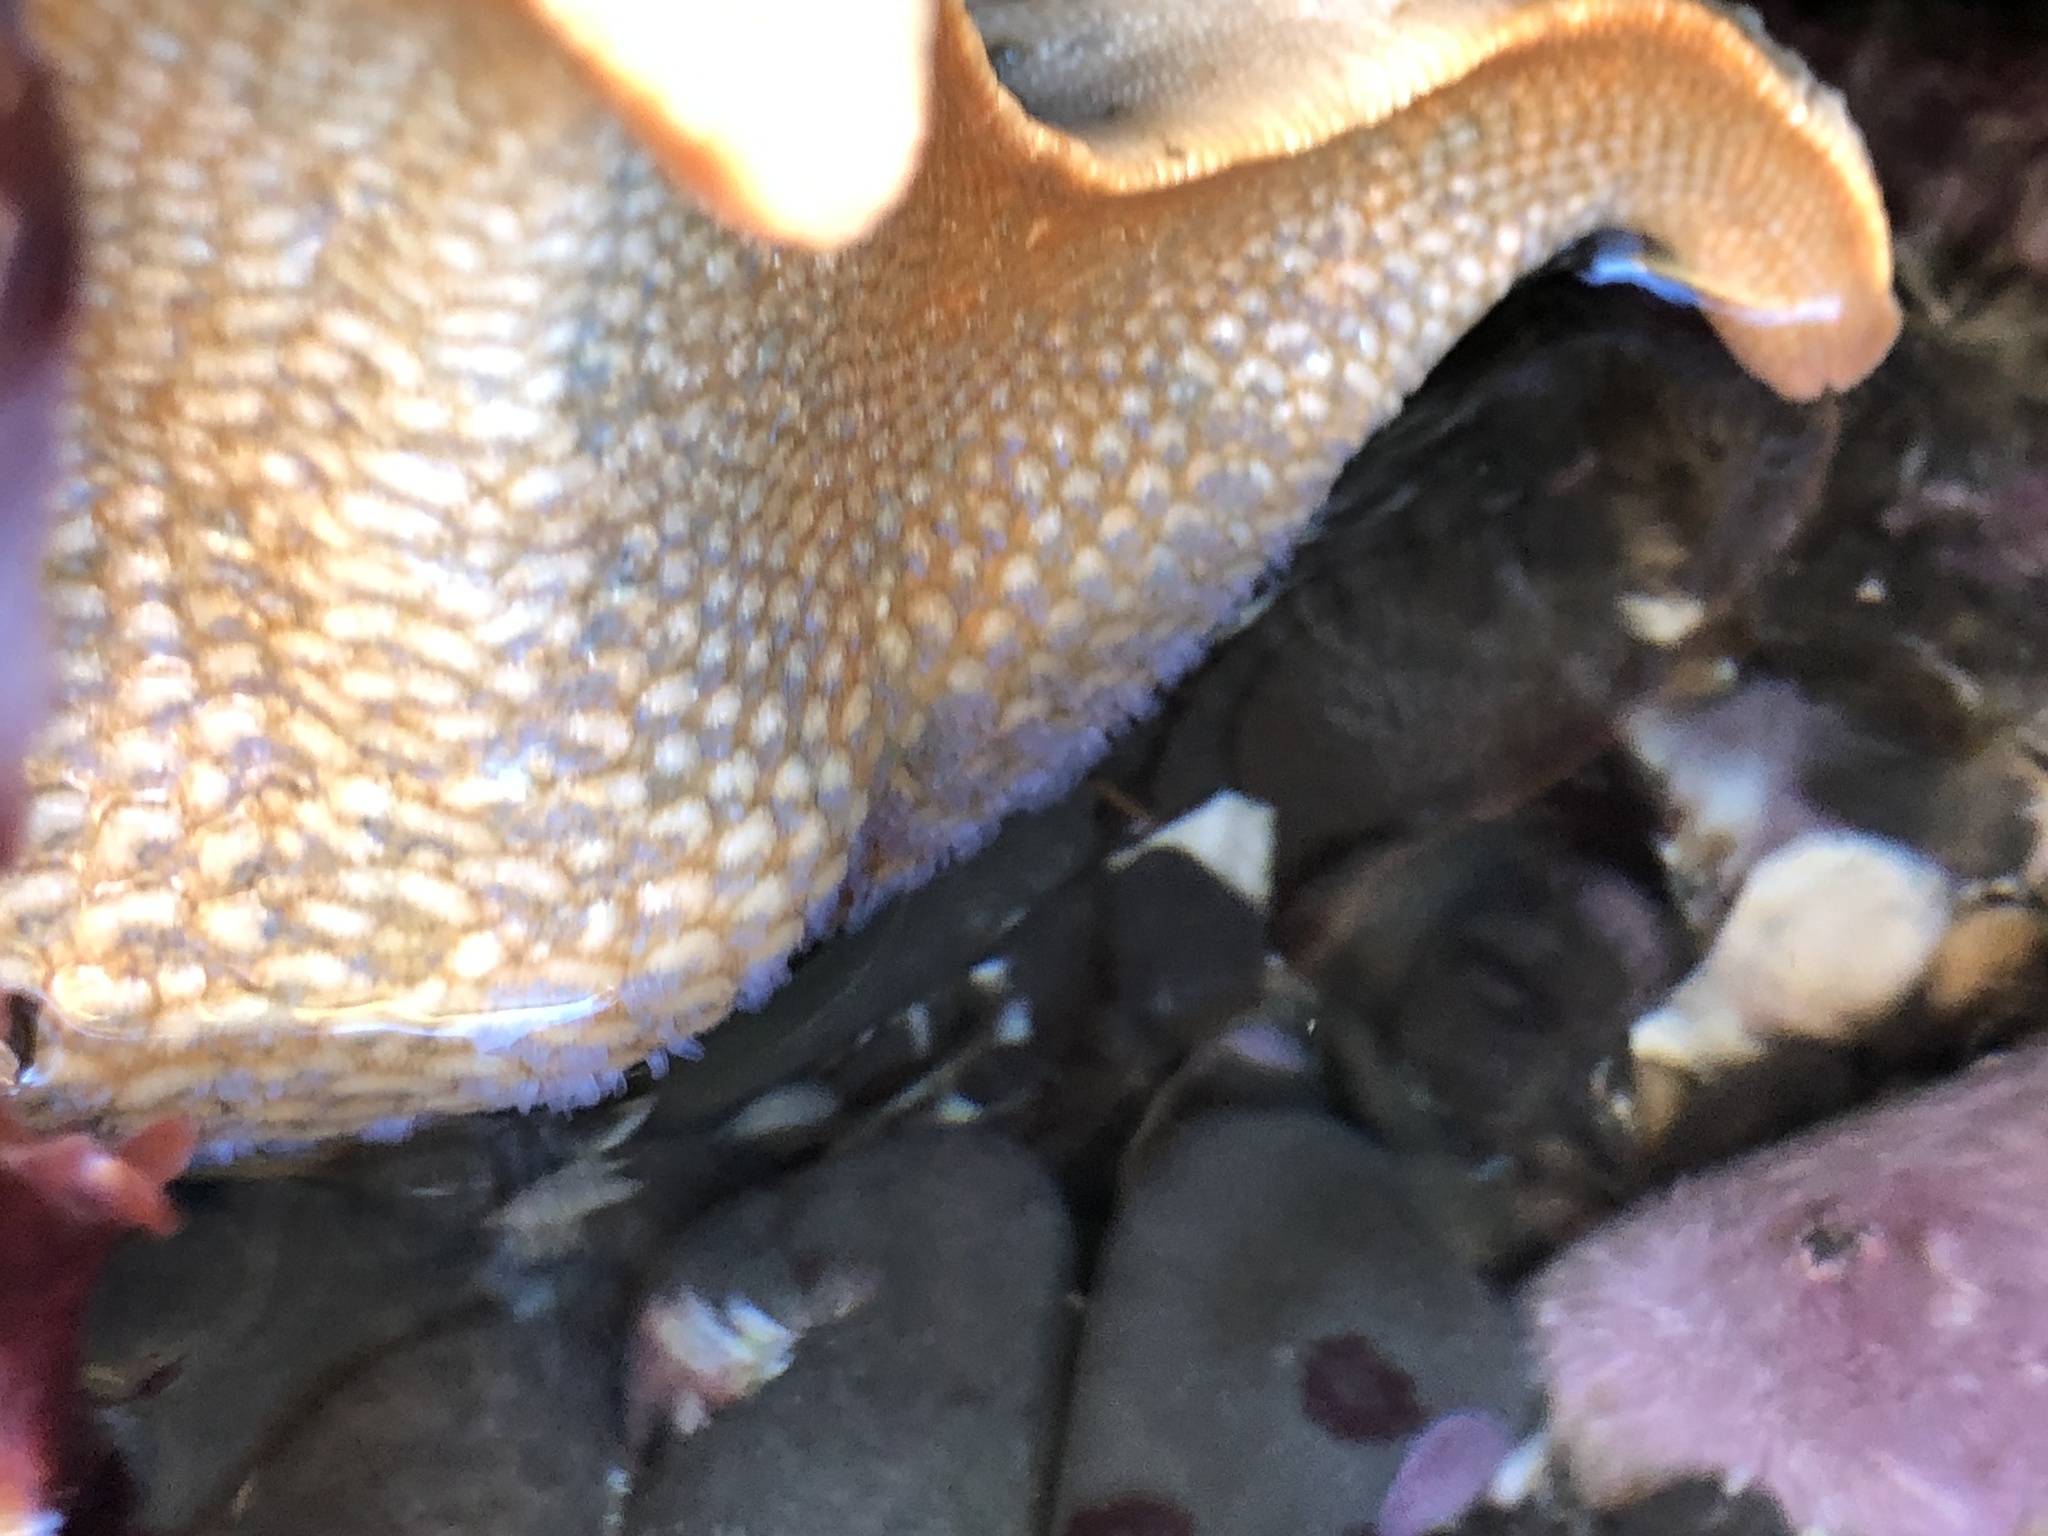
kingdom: Animalia
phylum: Echinodermata
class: Asteroidea
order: Valvatida
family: Asterinidae
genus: Patiria
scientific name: Patiria miniata
